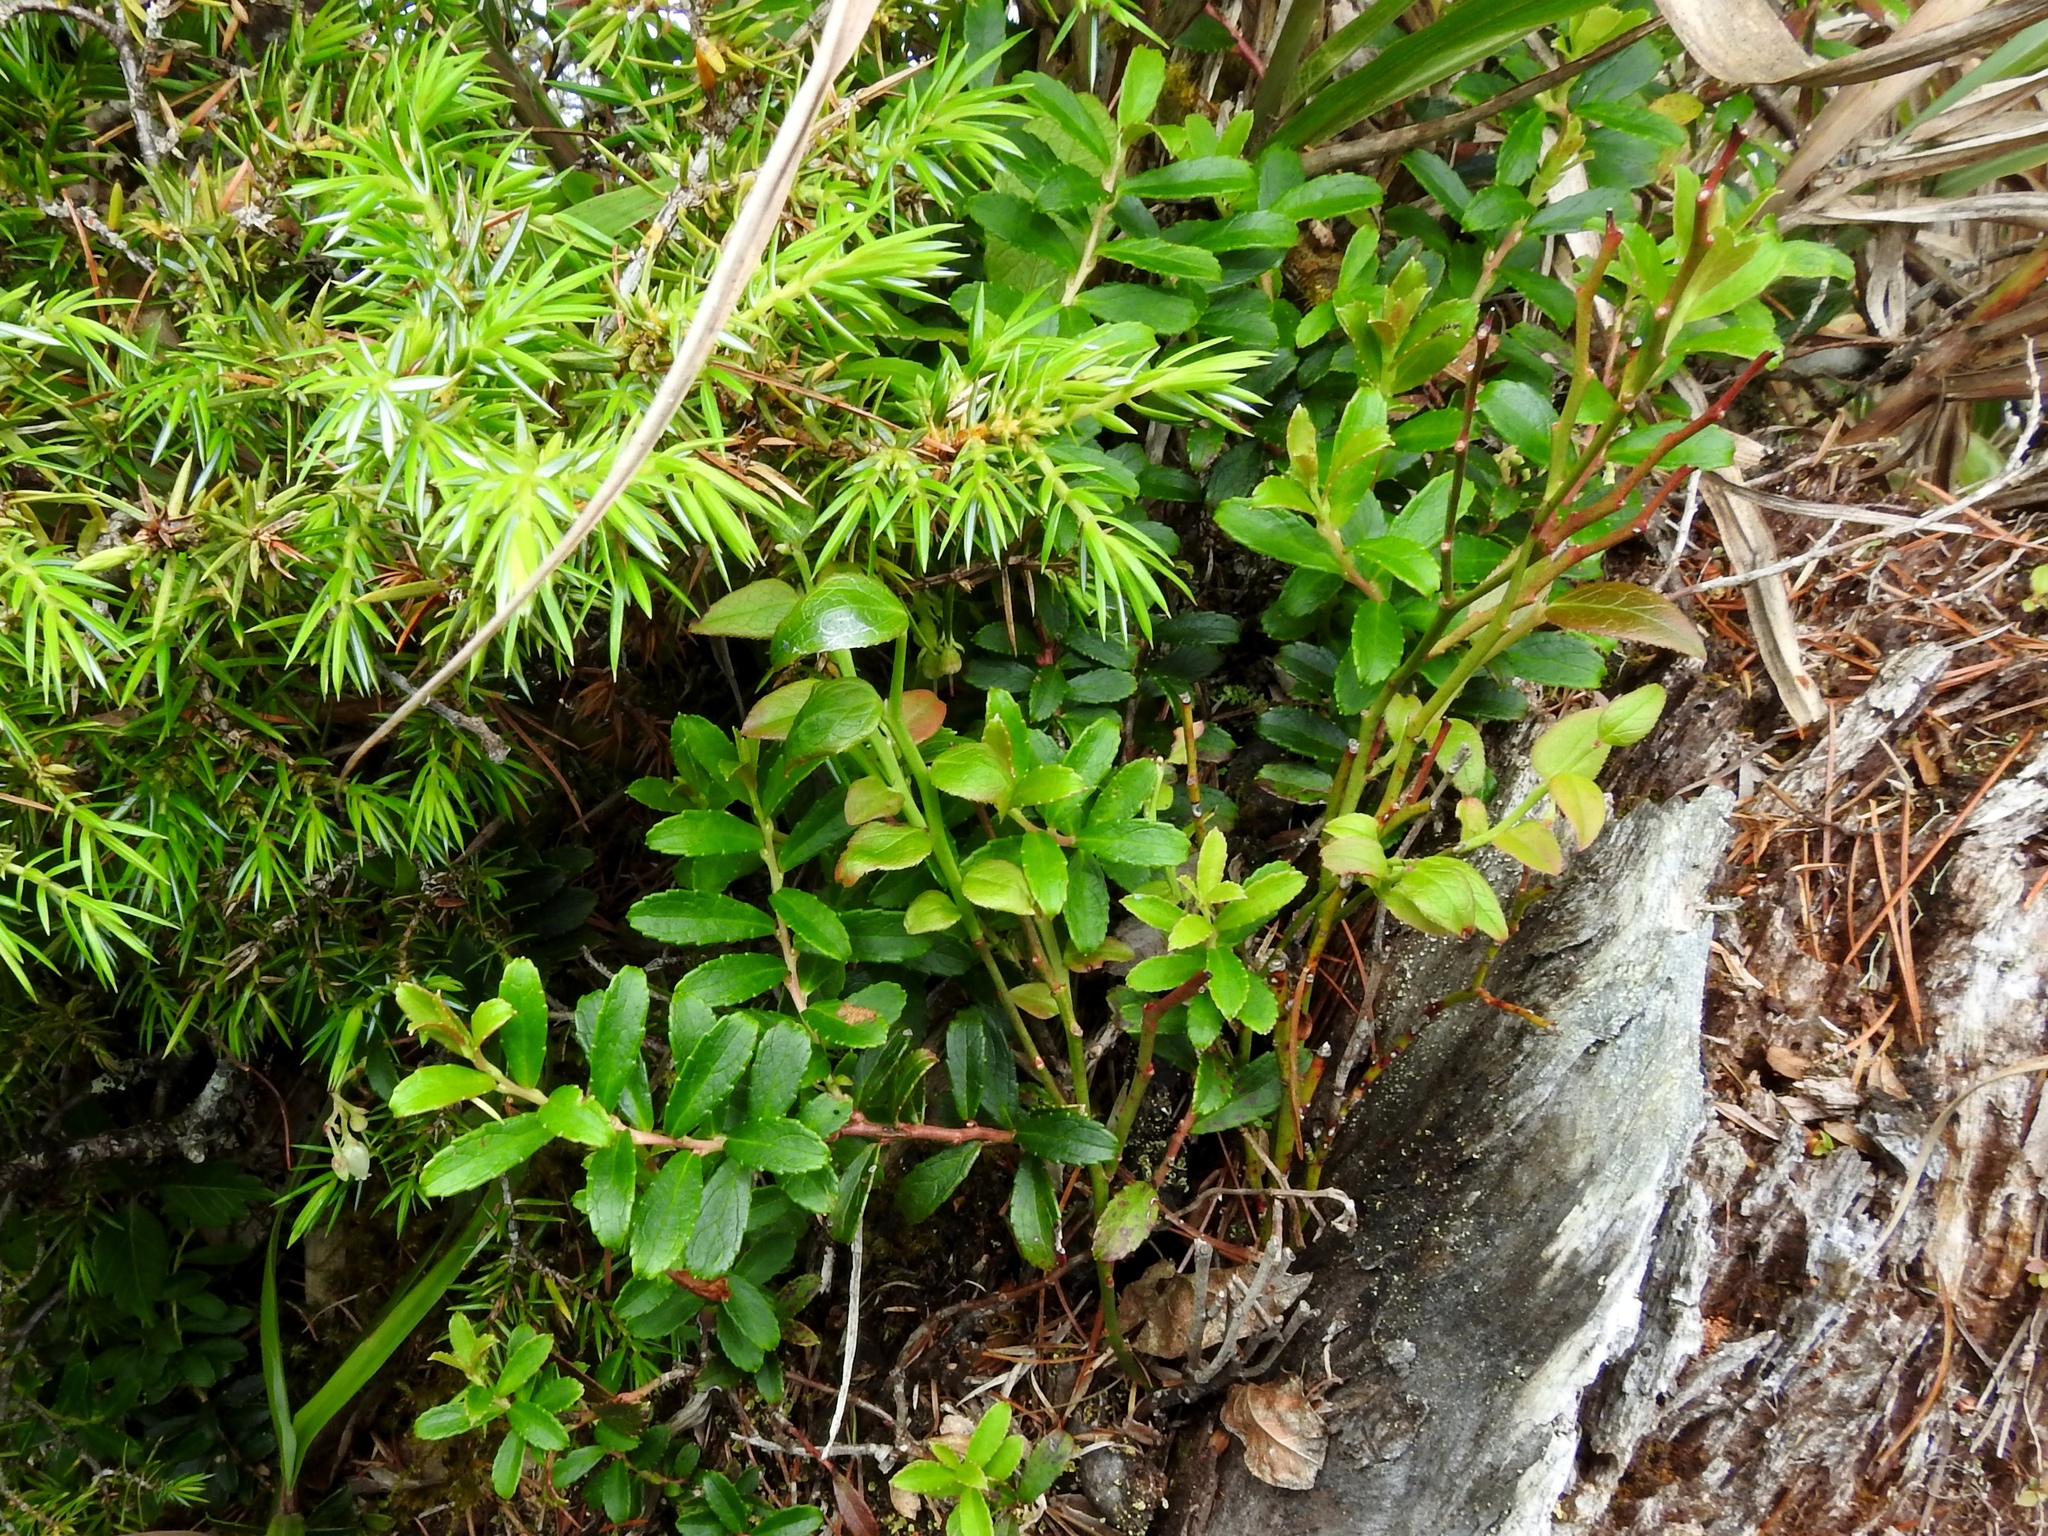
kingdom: Plantae
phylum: Tracheophyta
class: Magnoliopsida
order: Ericales
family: Ericaceae
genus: Gaultheria
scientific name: Gaultheria borneensis
